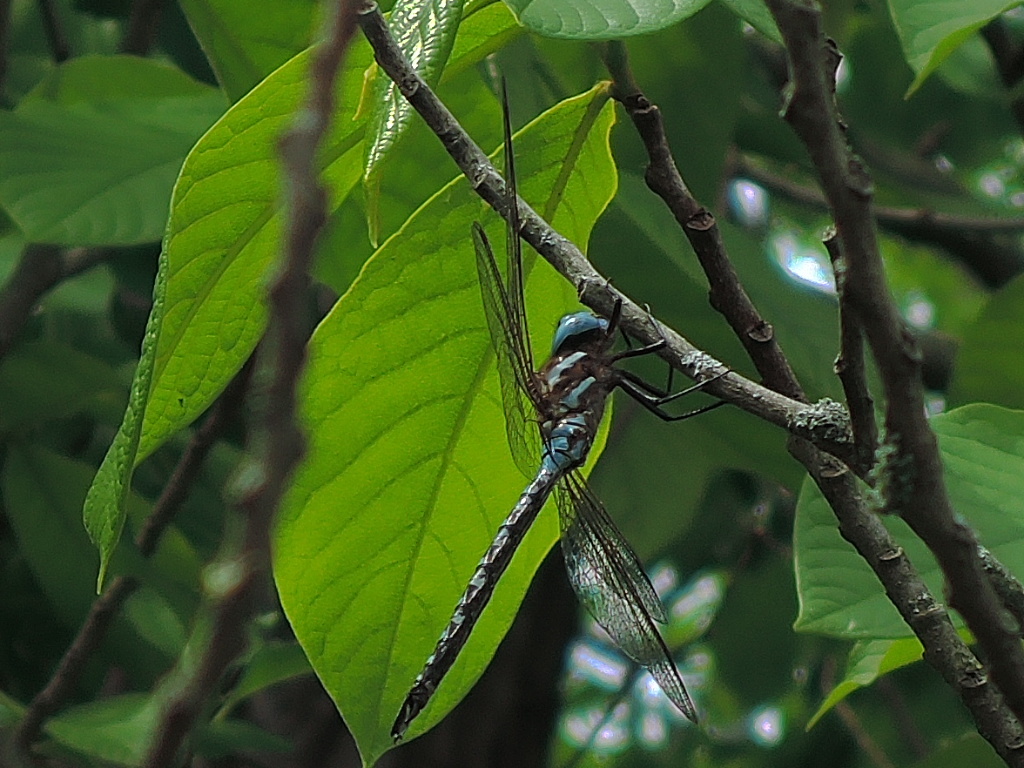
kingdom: Animalia
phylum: Arthropoda
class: Insecta
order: Odonata
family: Aeshnidae
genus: Rhionaeschna
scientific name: Rhionaeschna mutata
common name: Spatterdock darner
